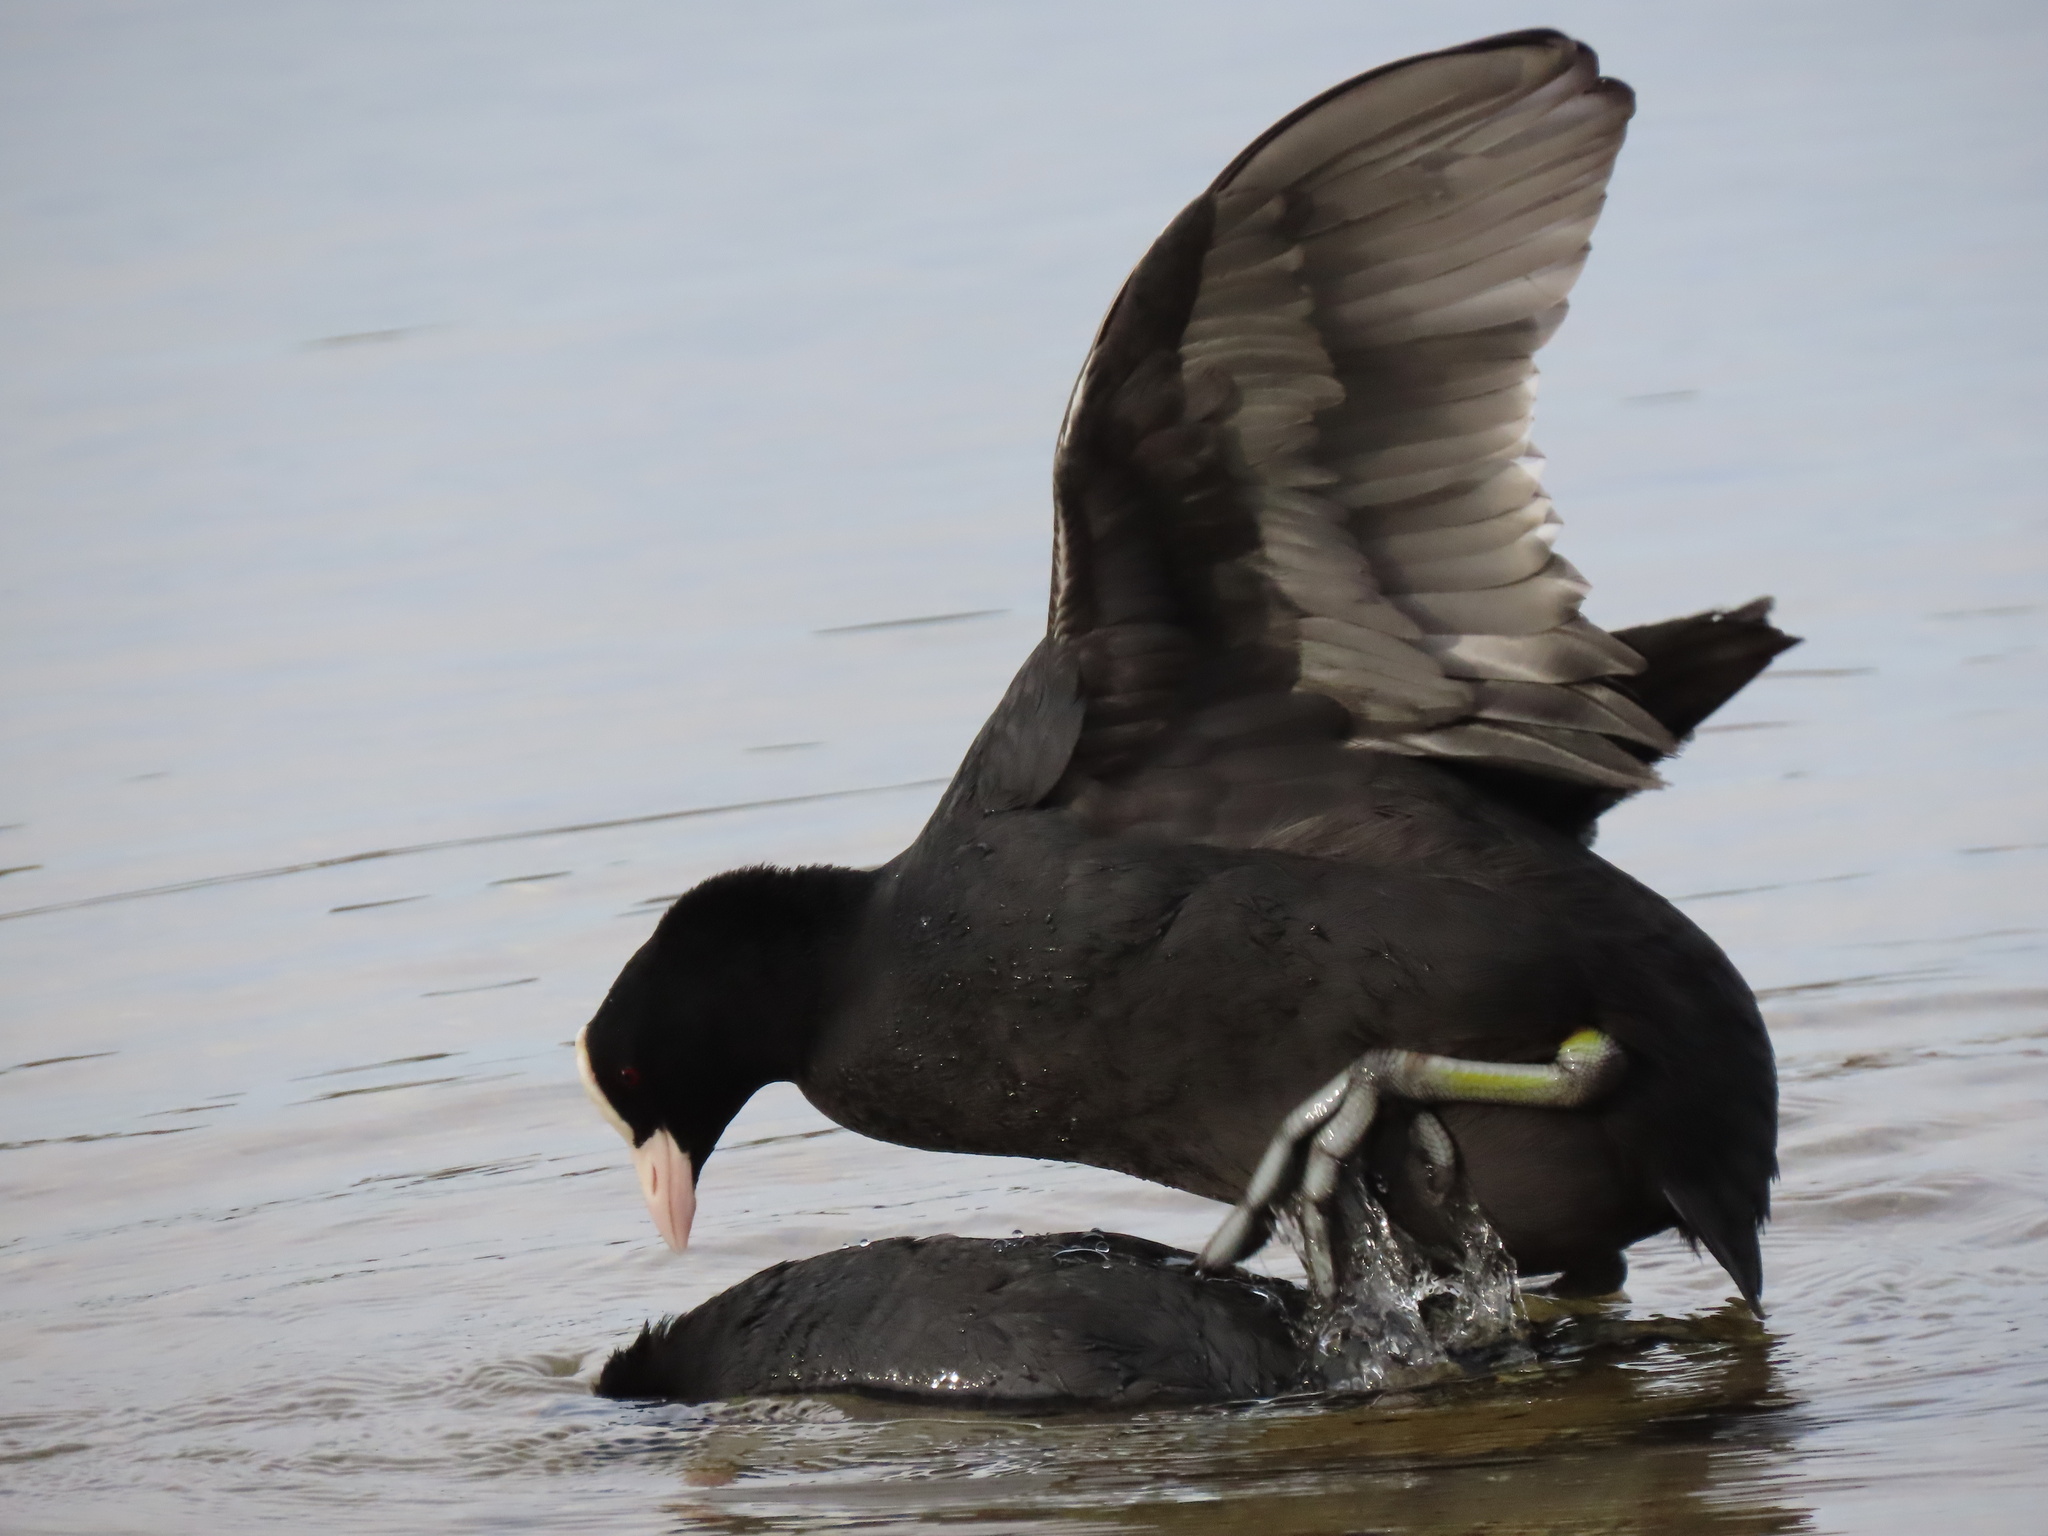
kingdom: Animalia
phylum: Chordata
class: Aves
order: Gruiformes
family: Rallidae
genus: Fulica
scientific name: Fulica atra
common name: Eurasian coot
